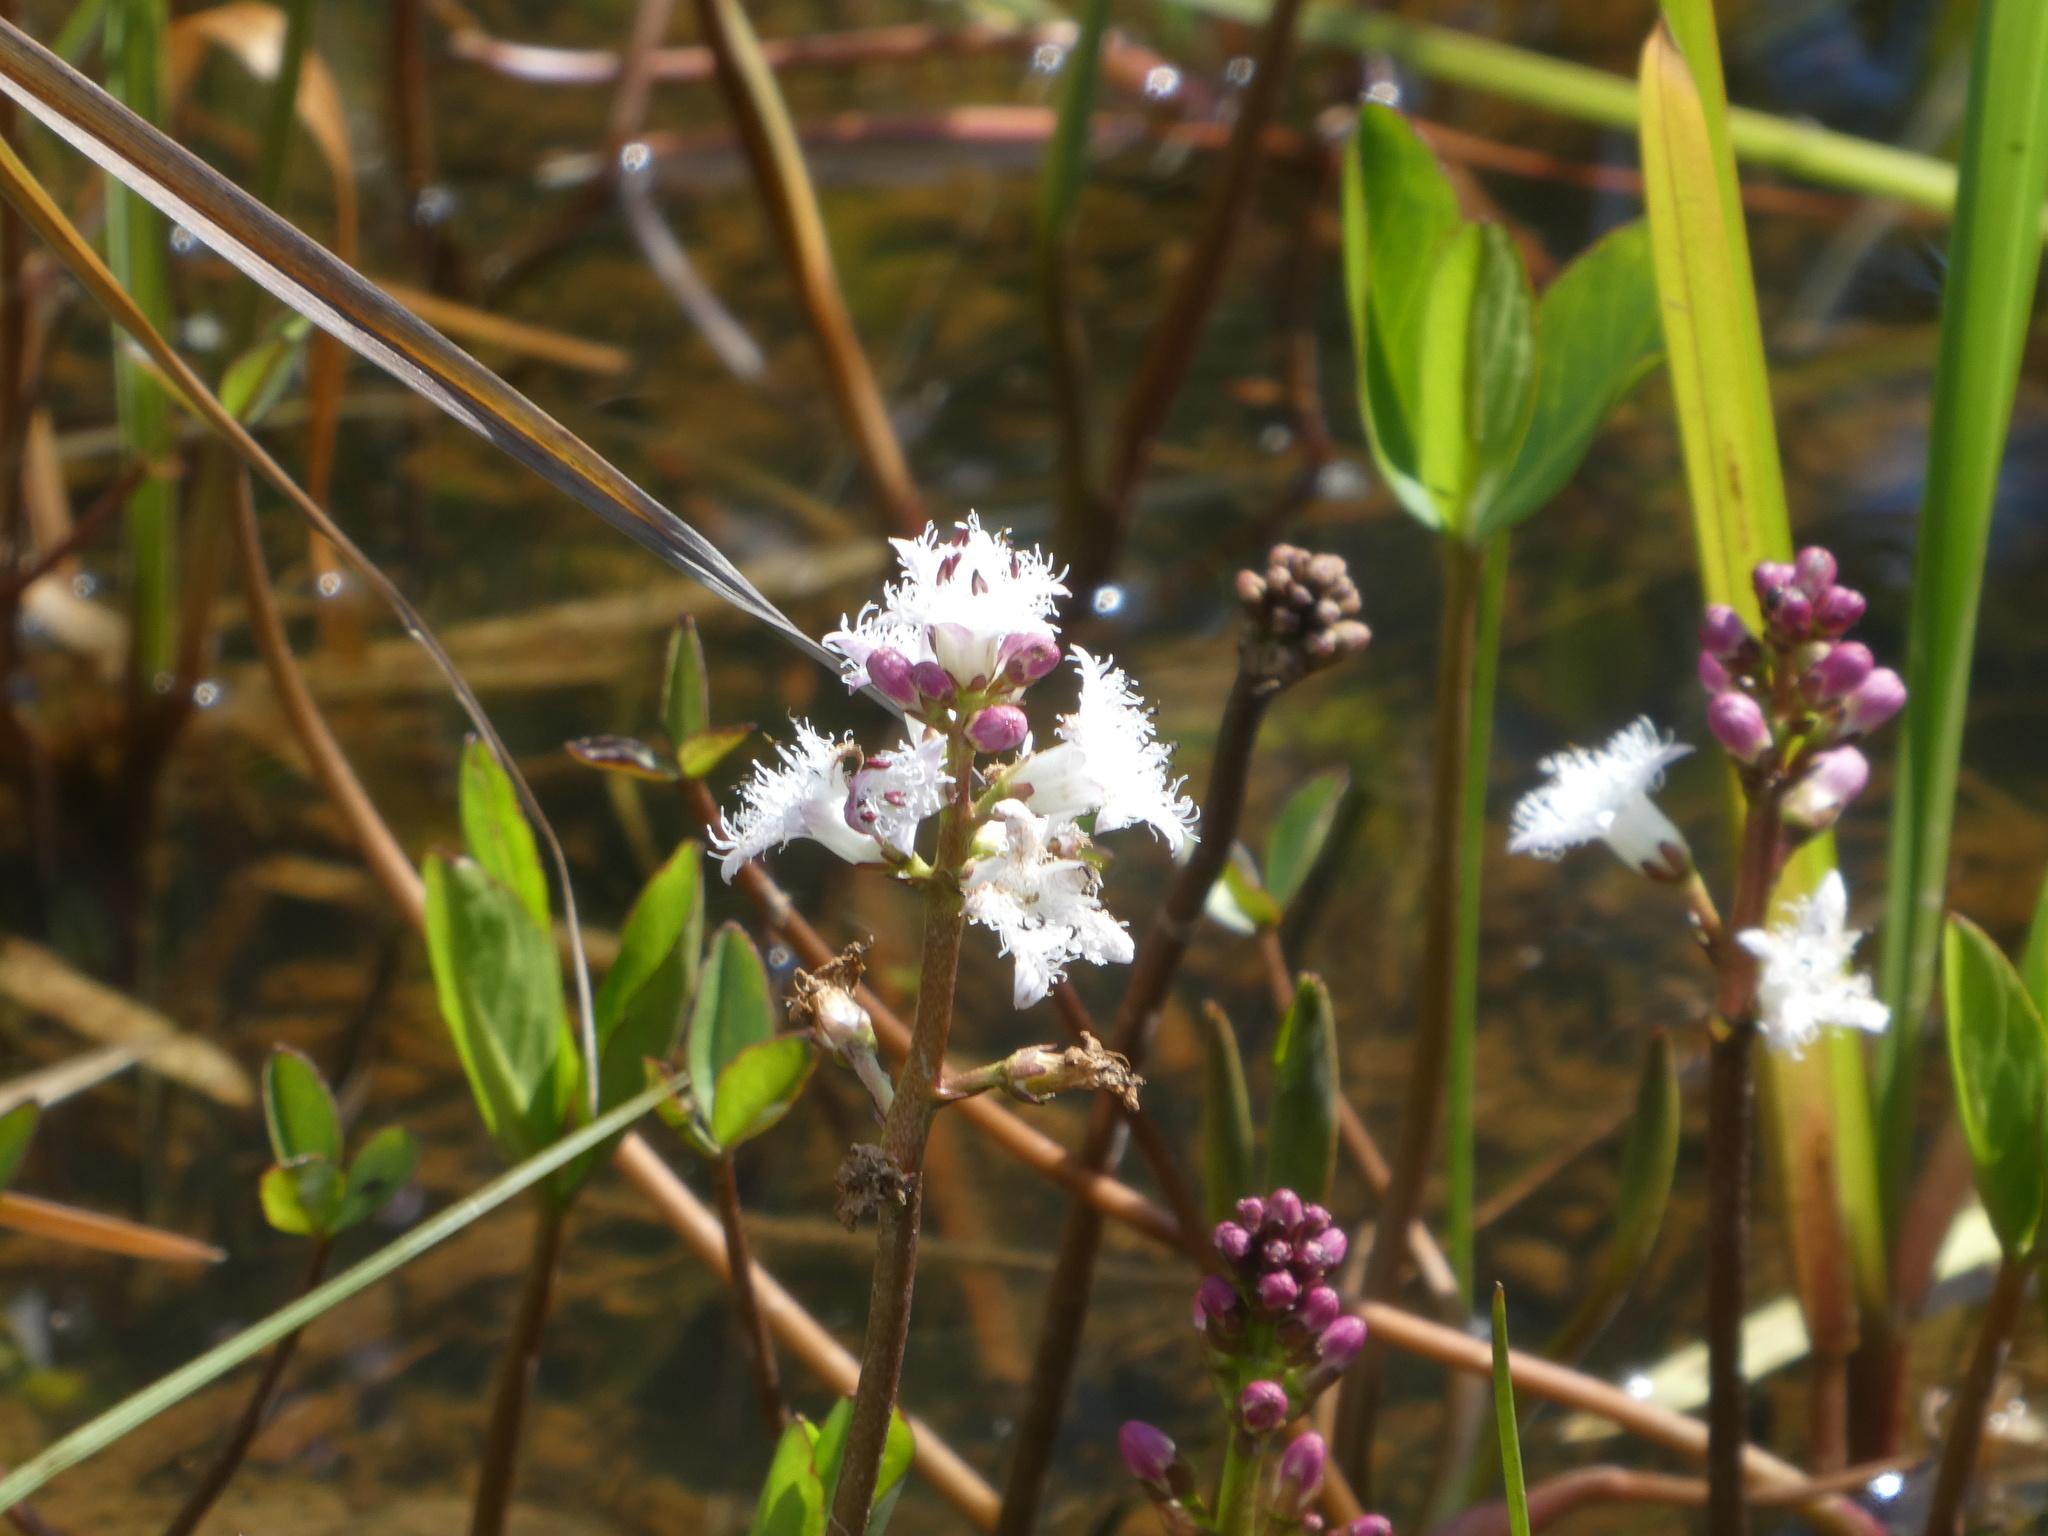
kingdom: Plantae
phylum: Tracheophyta
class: Magnoliopsida
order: Asterales
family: Menyanthaceae
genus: Menyanthes
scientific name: Menyanthes trifoliata
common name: Bogbean
